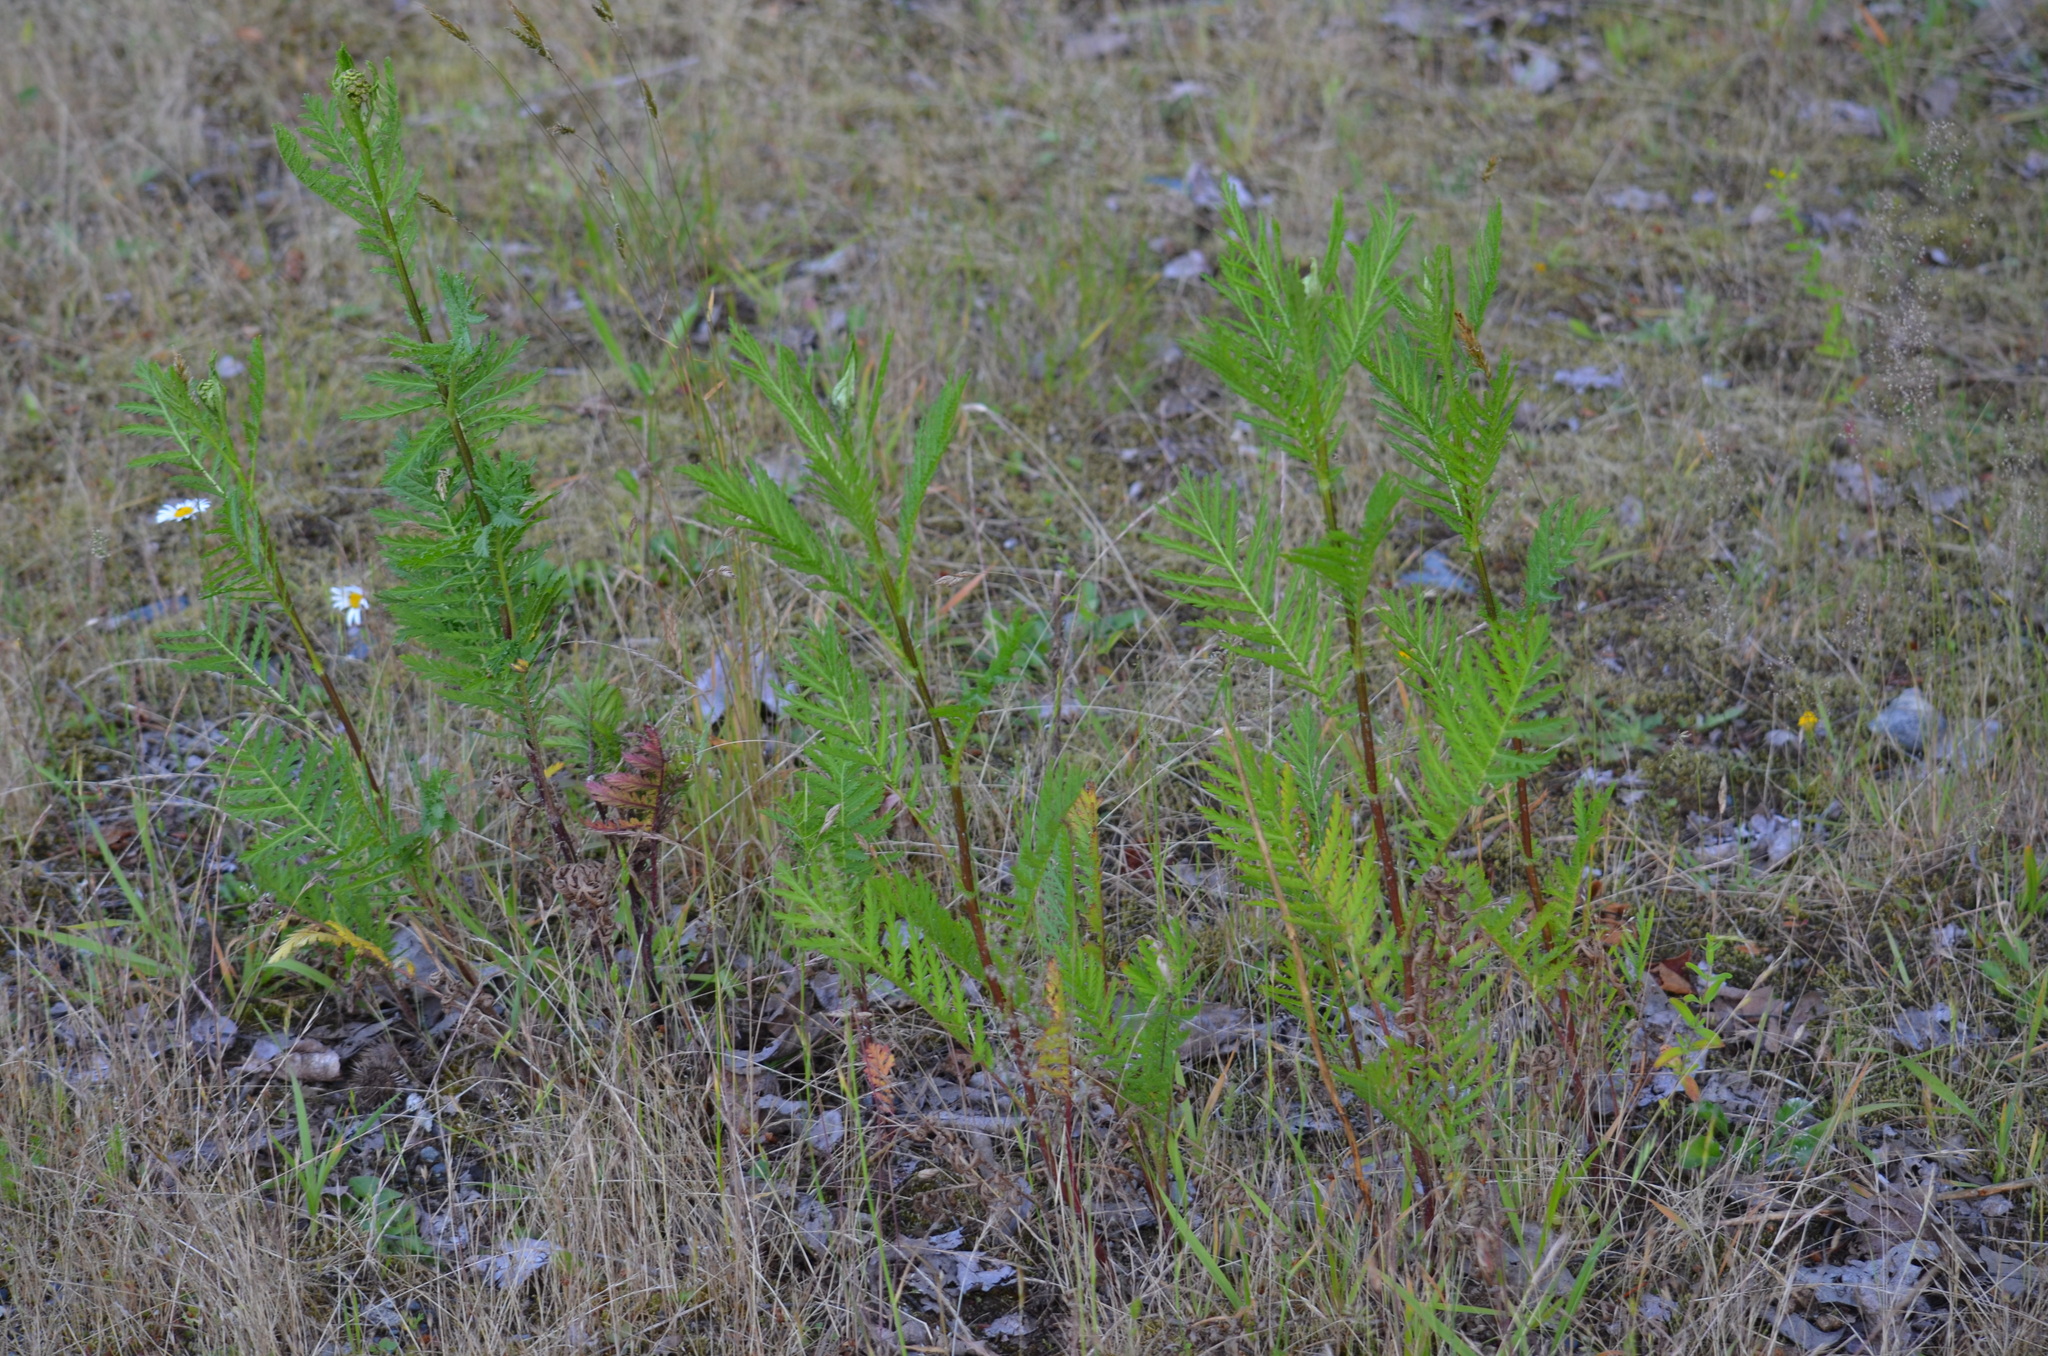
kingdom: Plantae
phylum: Tracheophyta
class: Magnoliopsida
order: Asterales
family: Asteraceae
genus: Tanacetum
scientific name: Tanacetum vulgare
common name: Common tansy
